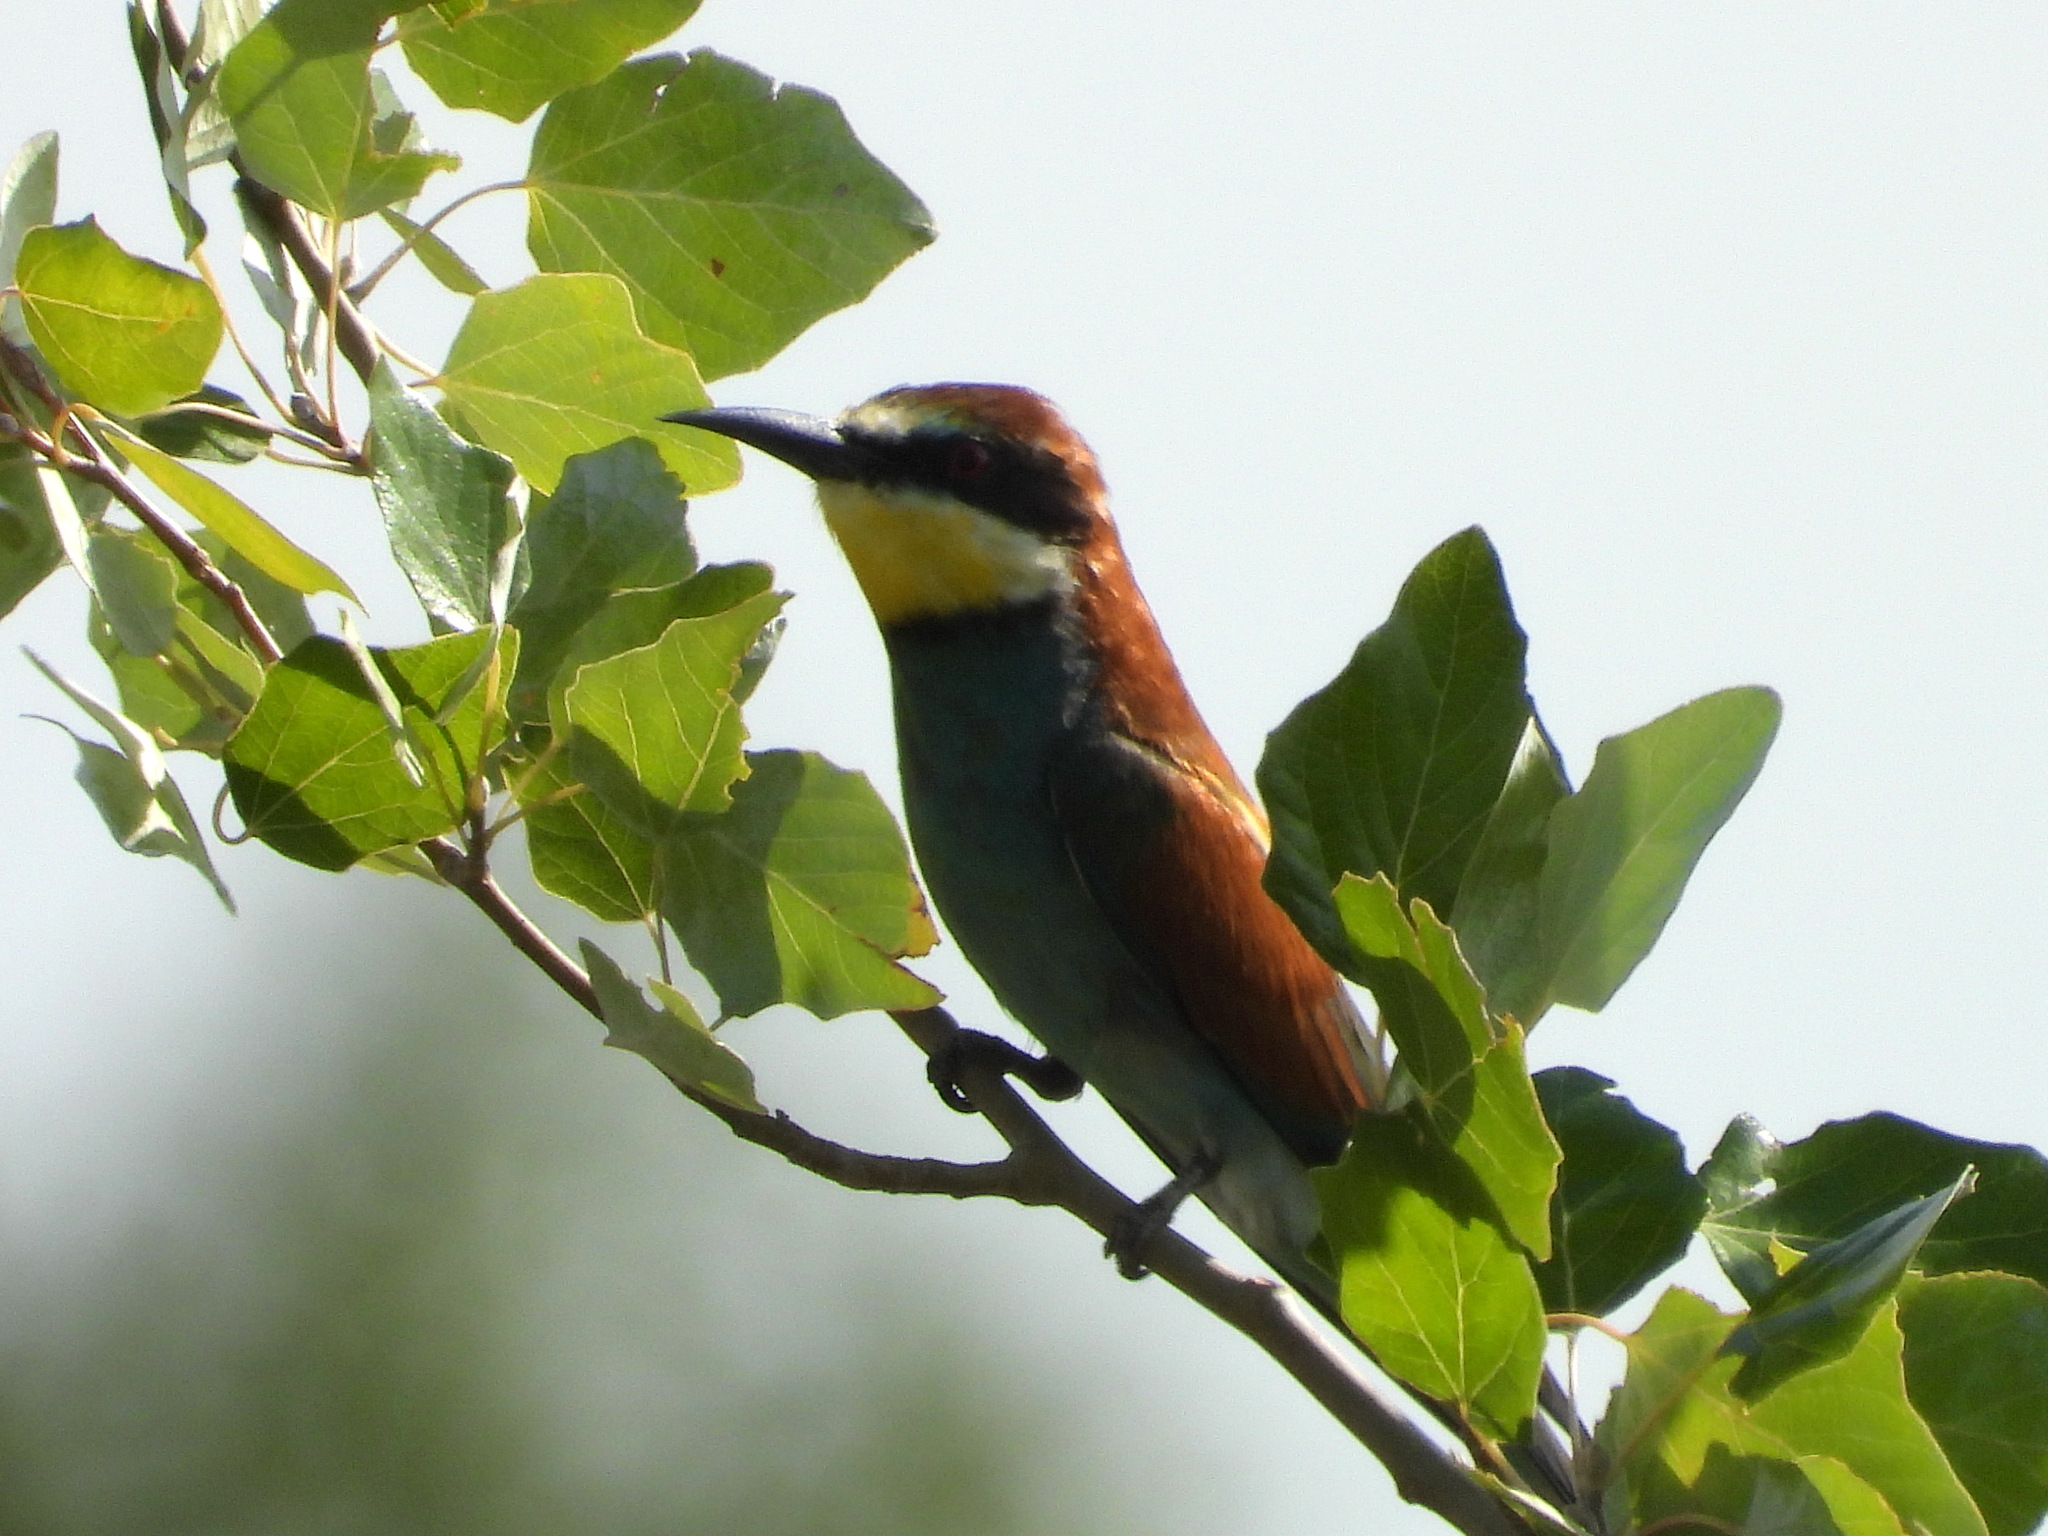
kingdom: Animalia
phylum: Chordata
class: Aves
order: Coraciiformes
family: Meropidae
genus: Merops
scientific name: Merops apiaster
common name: European bee-eater
